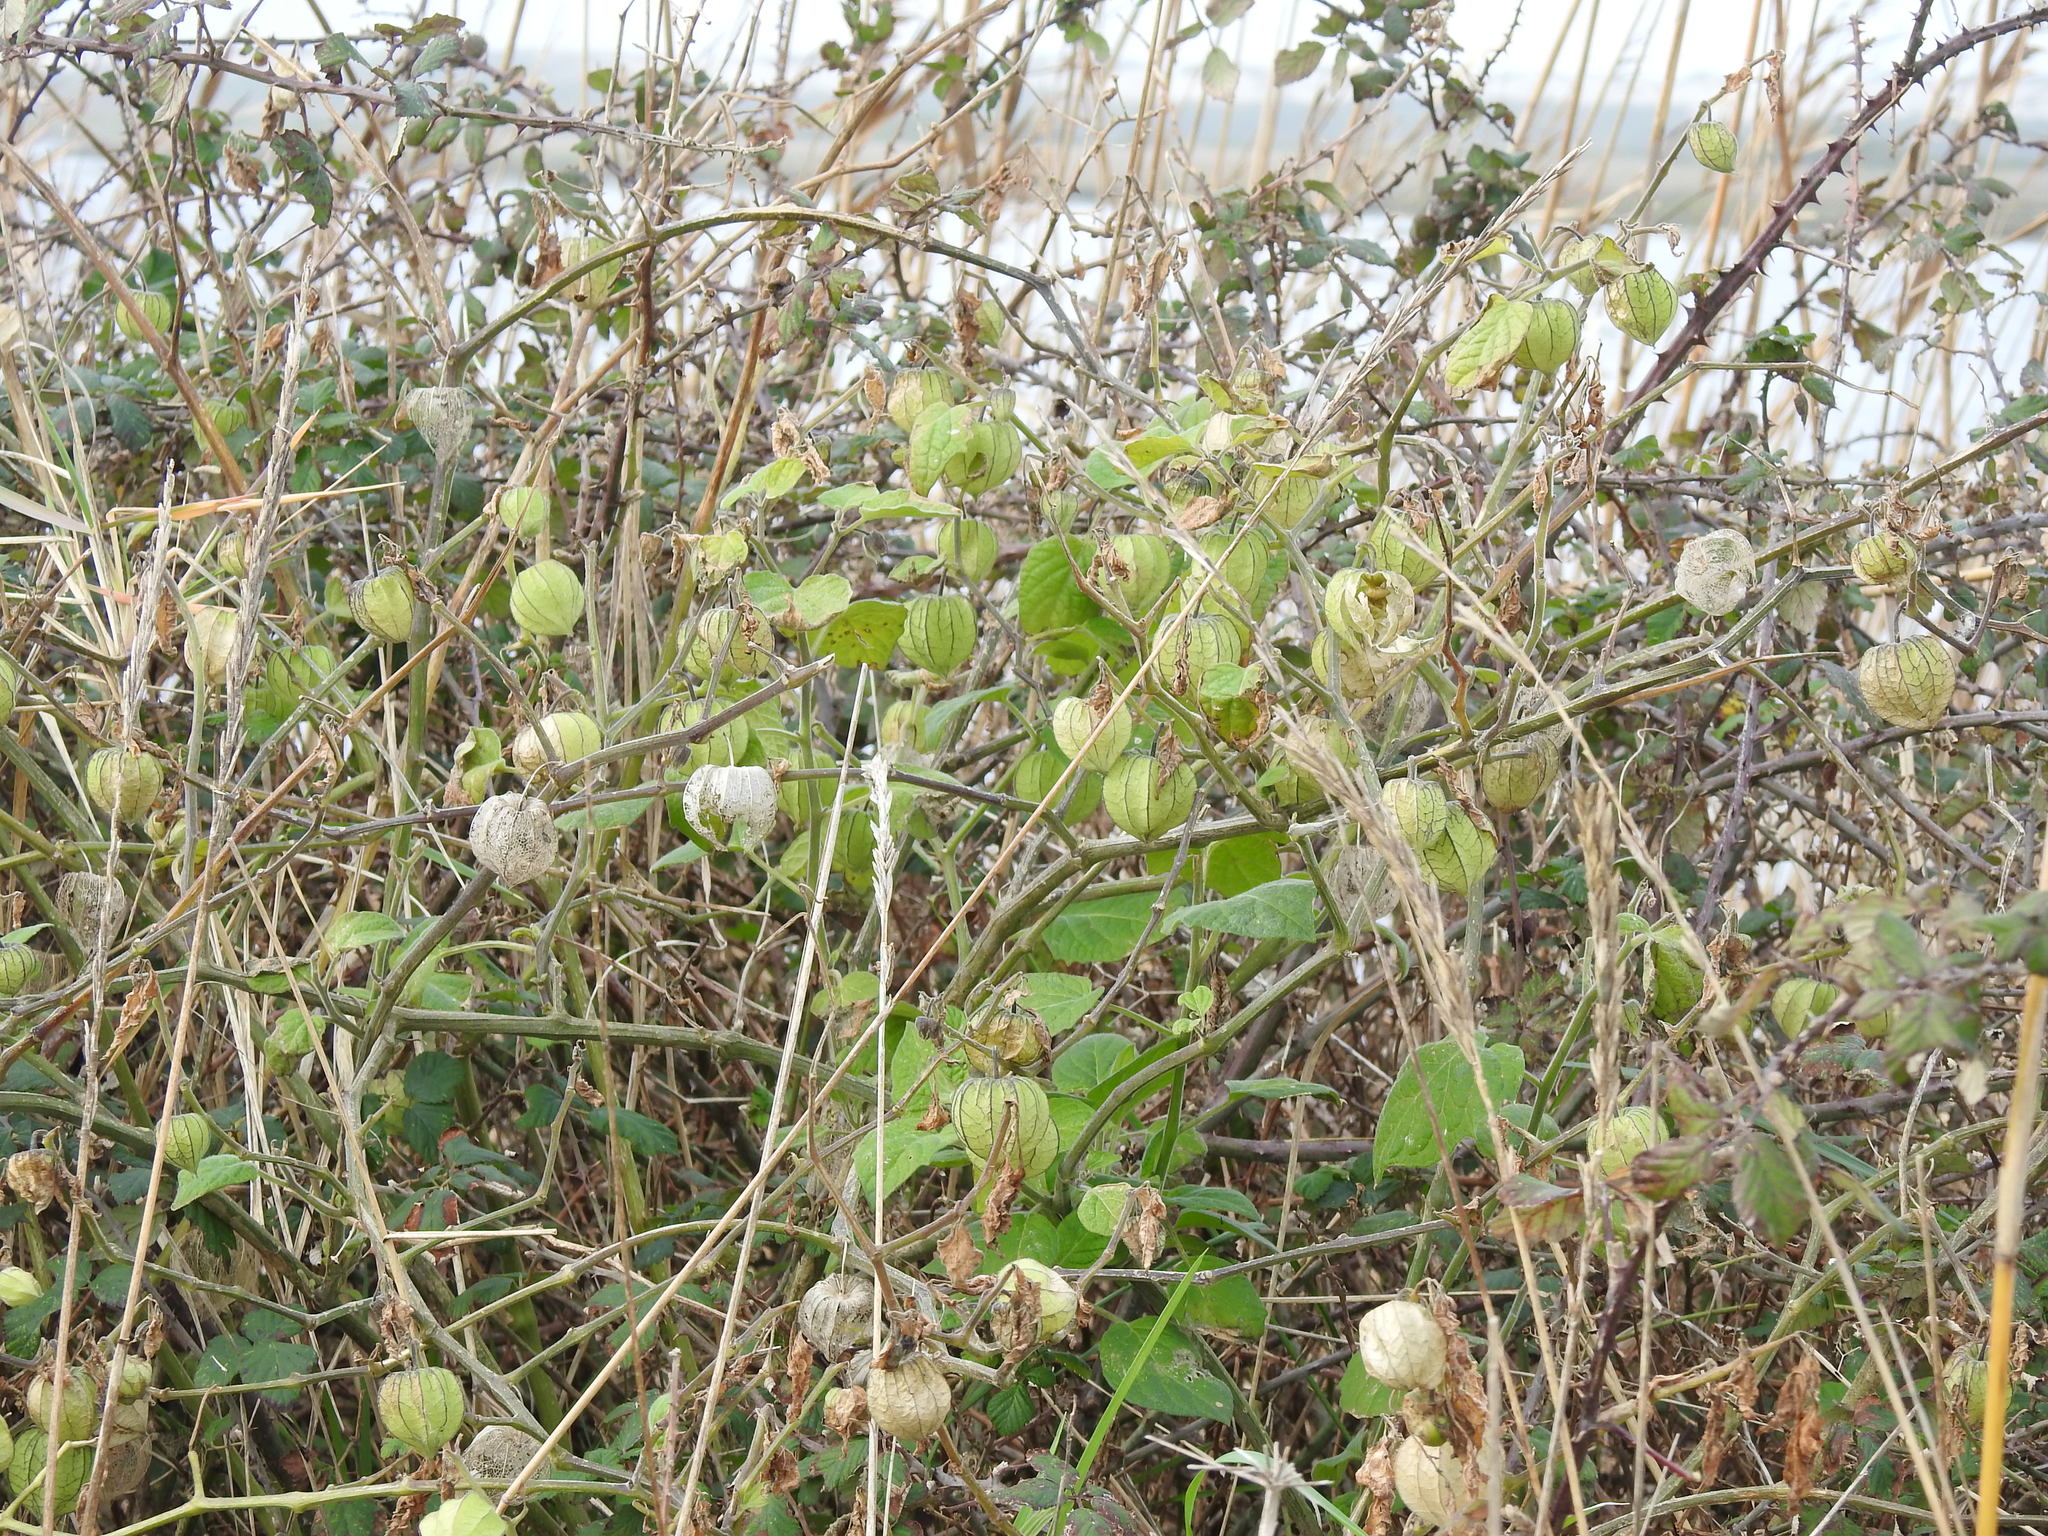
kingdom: Plantae
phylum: Tracheophyta
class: Magnoliopsida
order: Solanales
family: Solanaceae
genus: Physalis
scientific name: Physalis peruviana
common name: Cape-gooseberry
